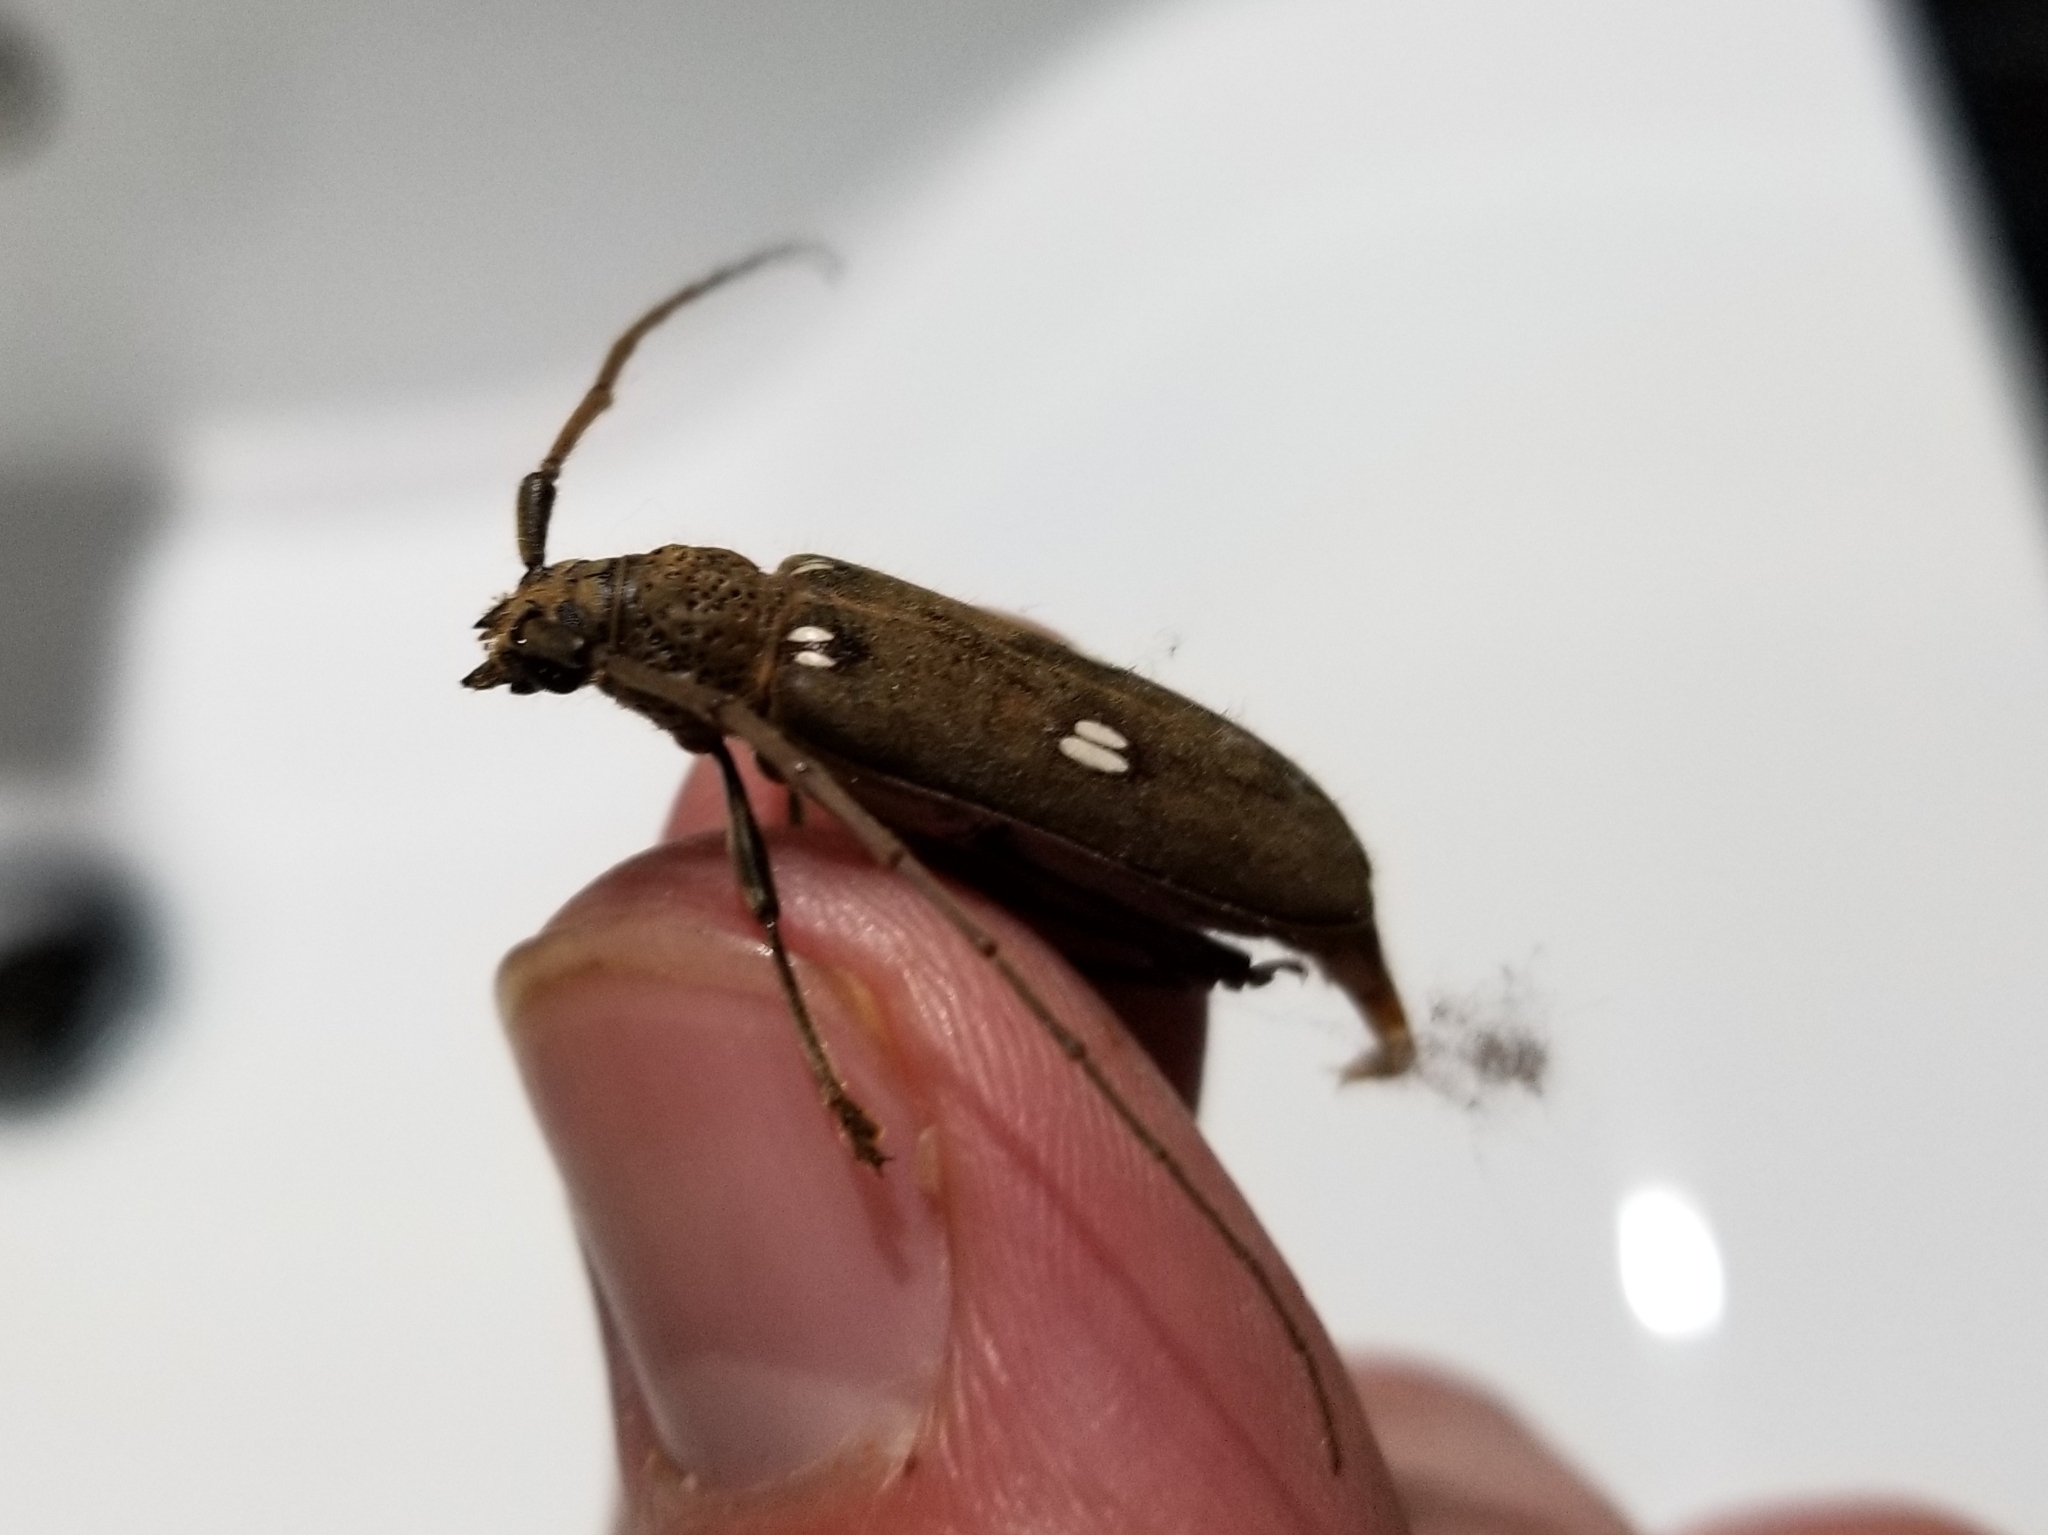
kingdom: Animalia
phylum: Arthropoda
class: Insecta
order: Coleoptera
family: Cerambycidae
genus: Susuacanga
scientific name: Susuacanga opaca
